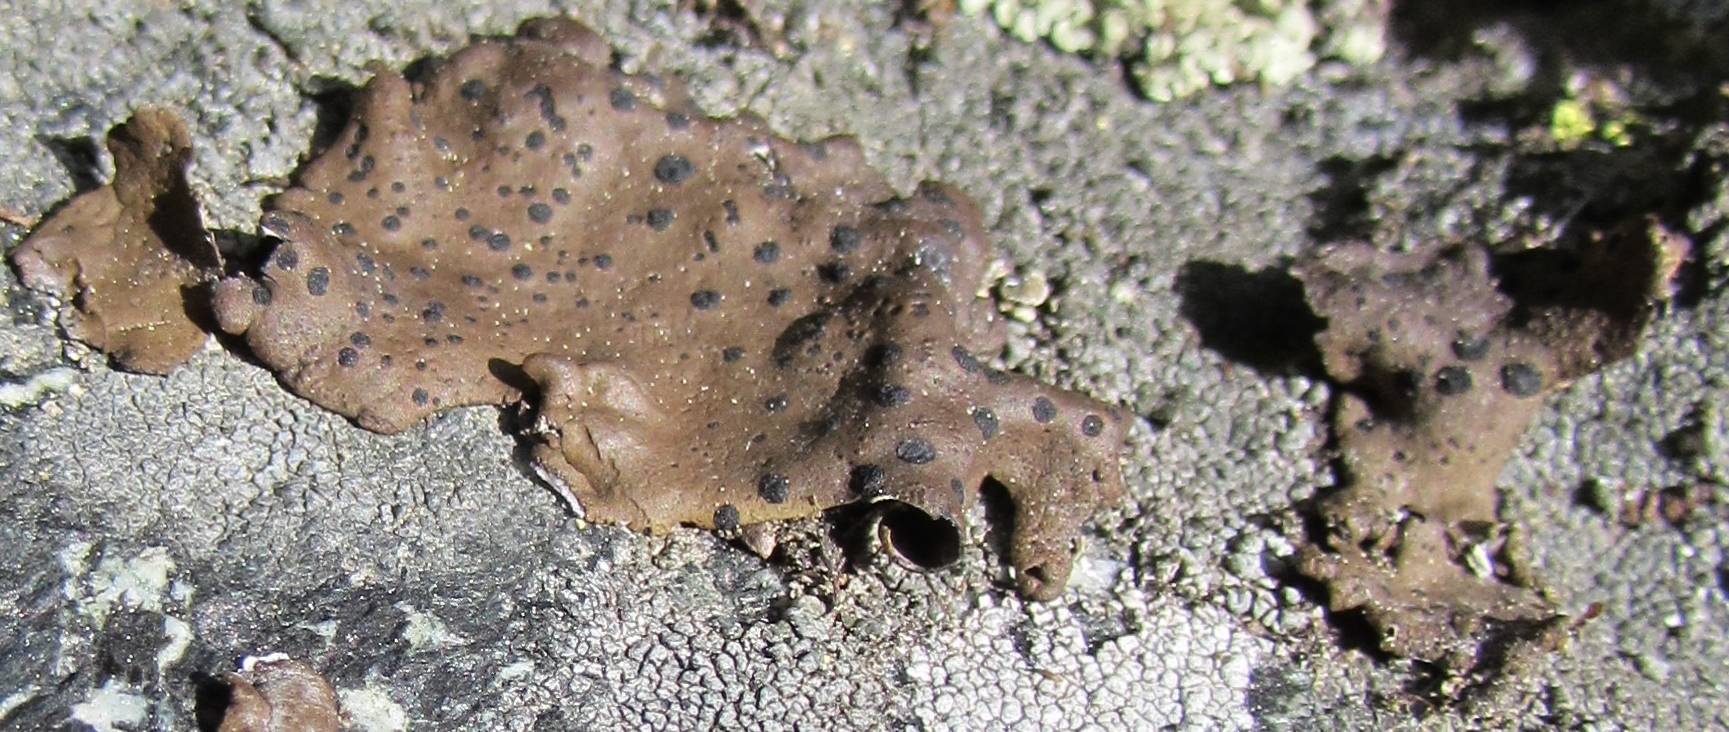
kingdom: Fungi
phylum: Ascomycota
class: Lecanoromycetes
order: Umbilicariales
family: Umbilicariaceae
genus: Umbilicaria
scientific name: Umbilicaria phaea
